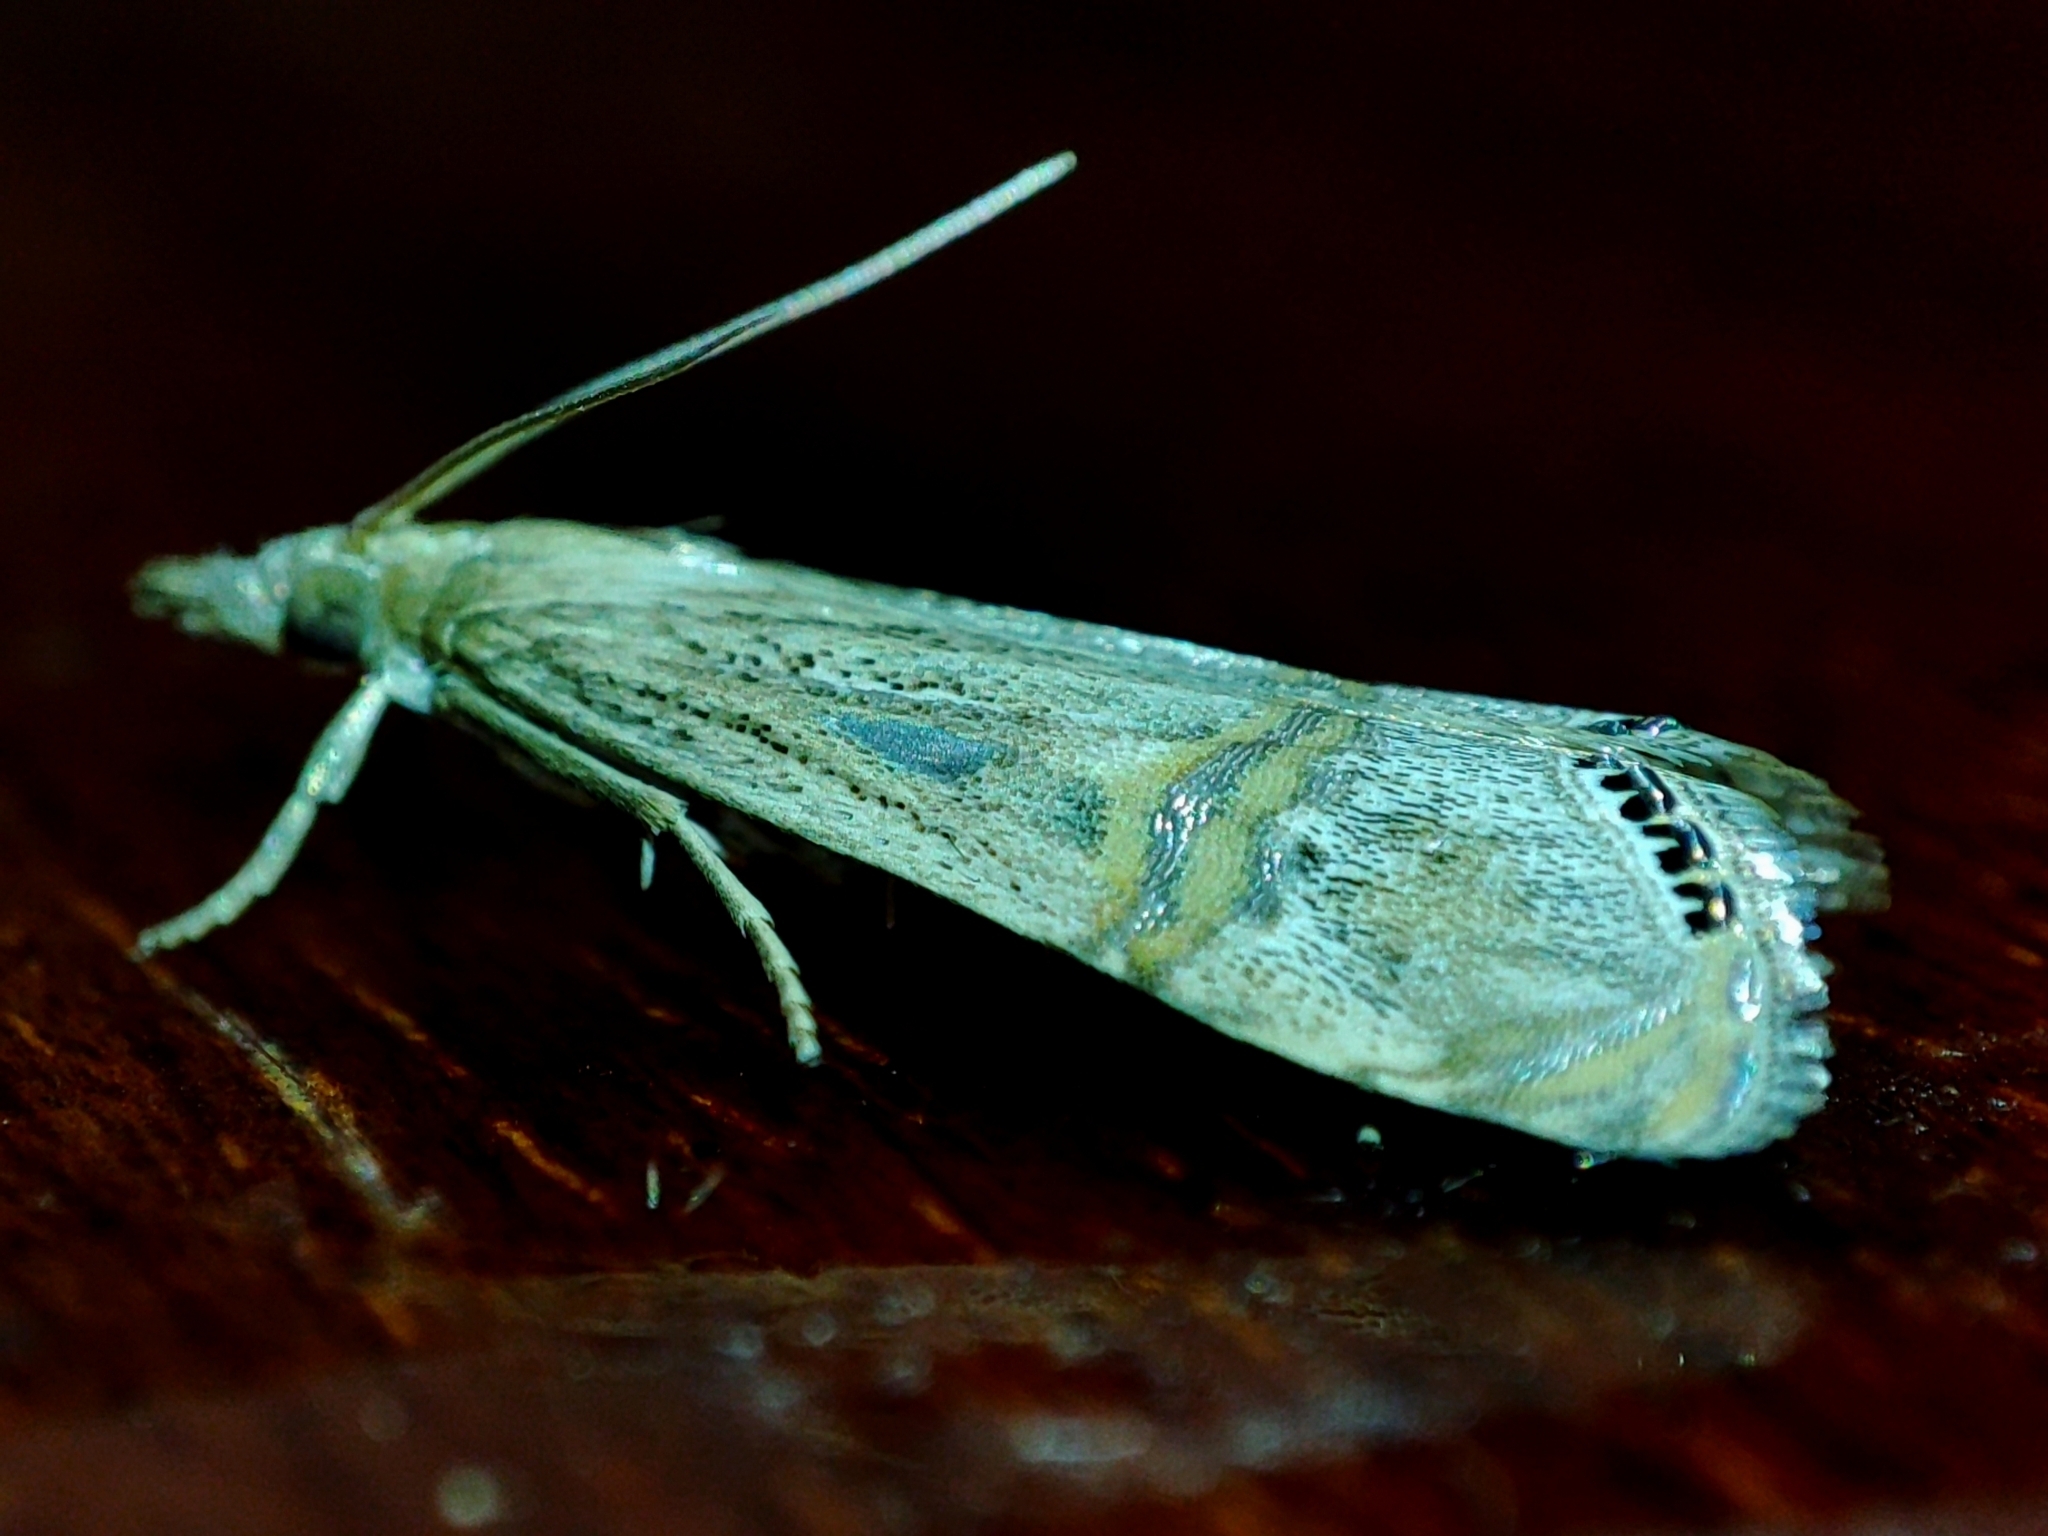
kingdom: Animalia
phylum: Arthropoda
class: Insecta
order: Lepidoptera
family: Crambidae
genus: Euchromius
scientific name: Euchromius ocellea
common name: Necklace veneer moth
